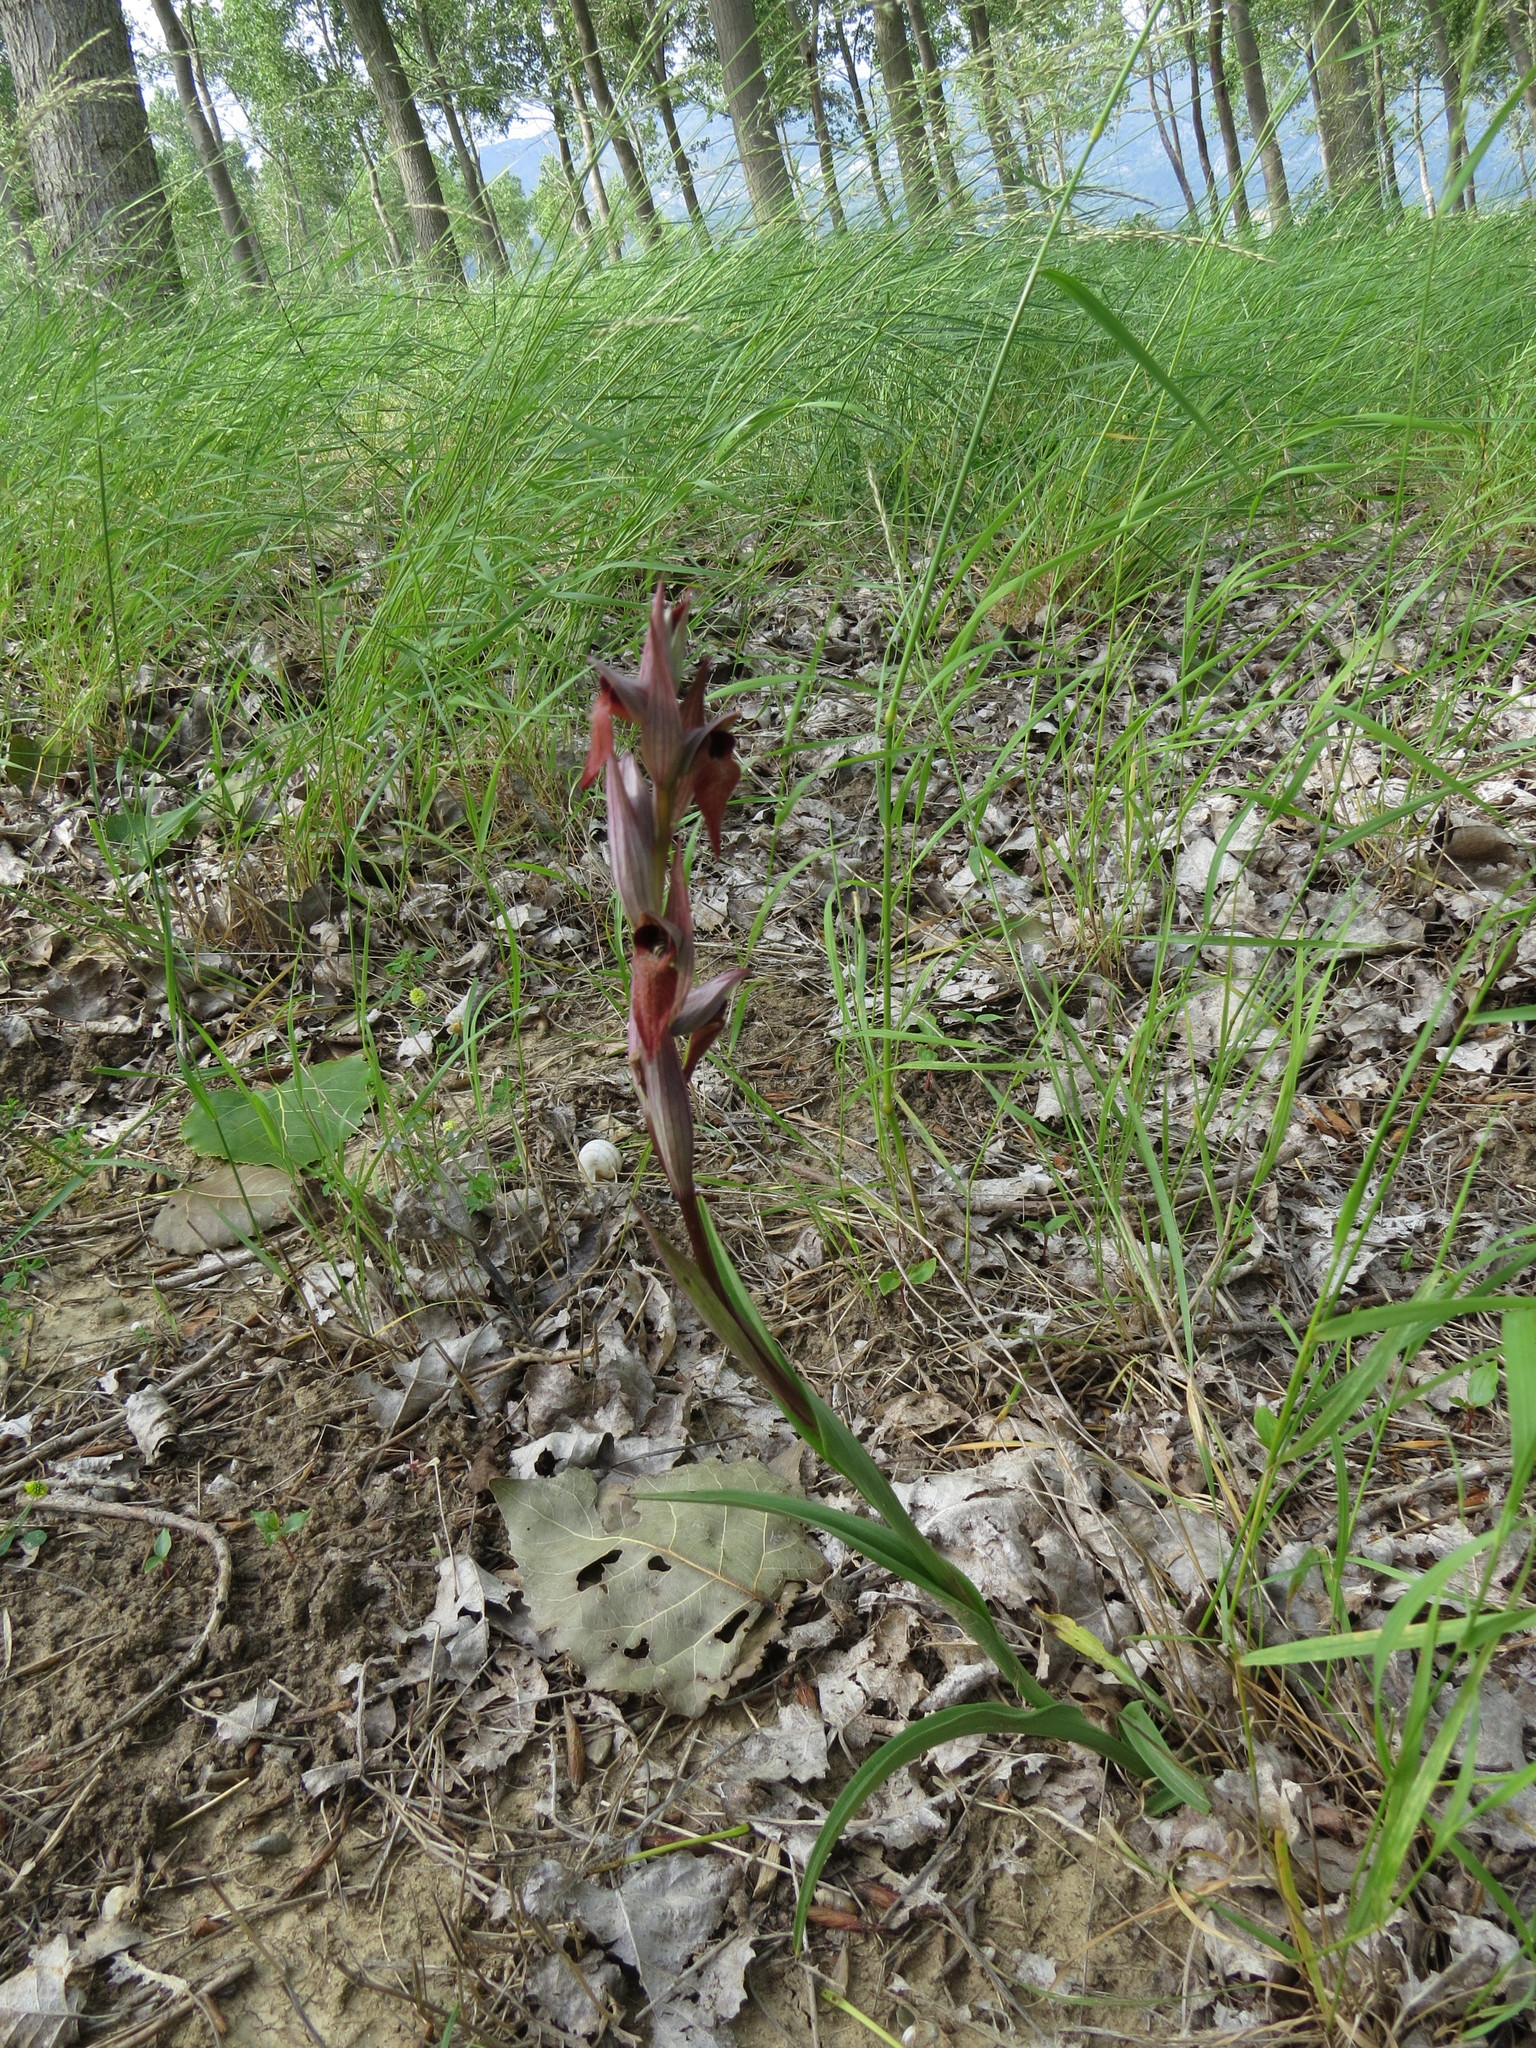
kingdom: Plantae
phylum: Tracheophyta
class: Liliopsida
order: Asparagales
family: Orchidaceae
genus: Serapias
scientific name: Serapias vomeracea
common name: Long-lipped tongue-orchid
